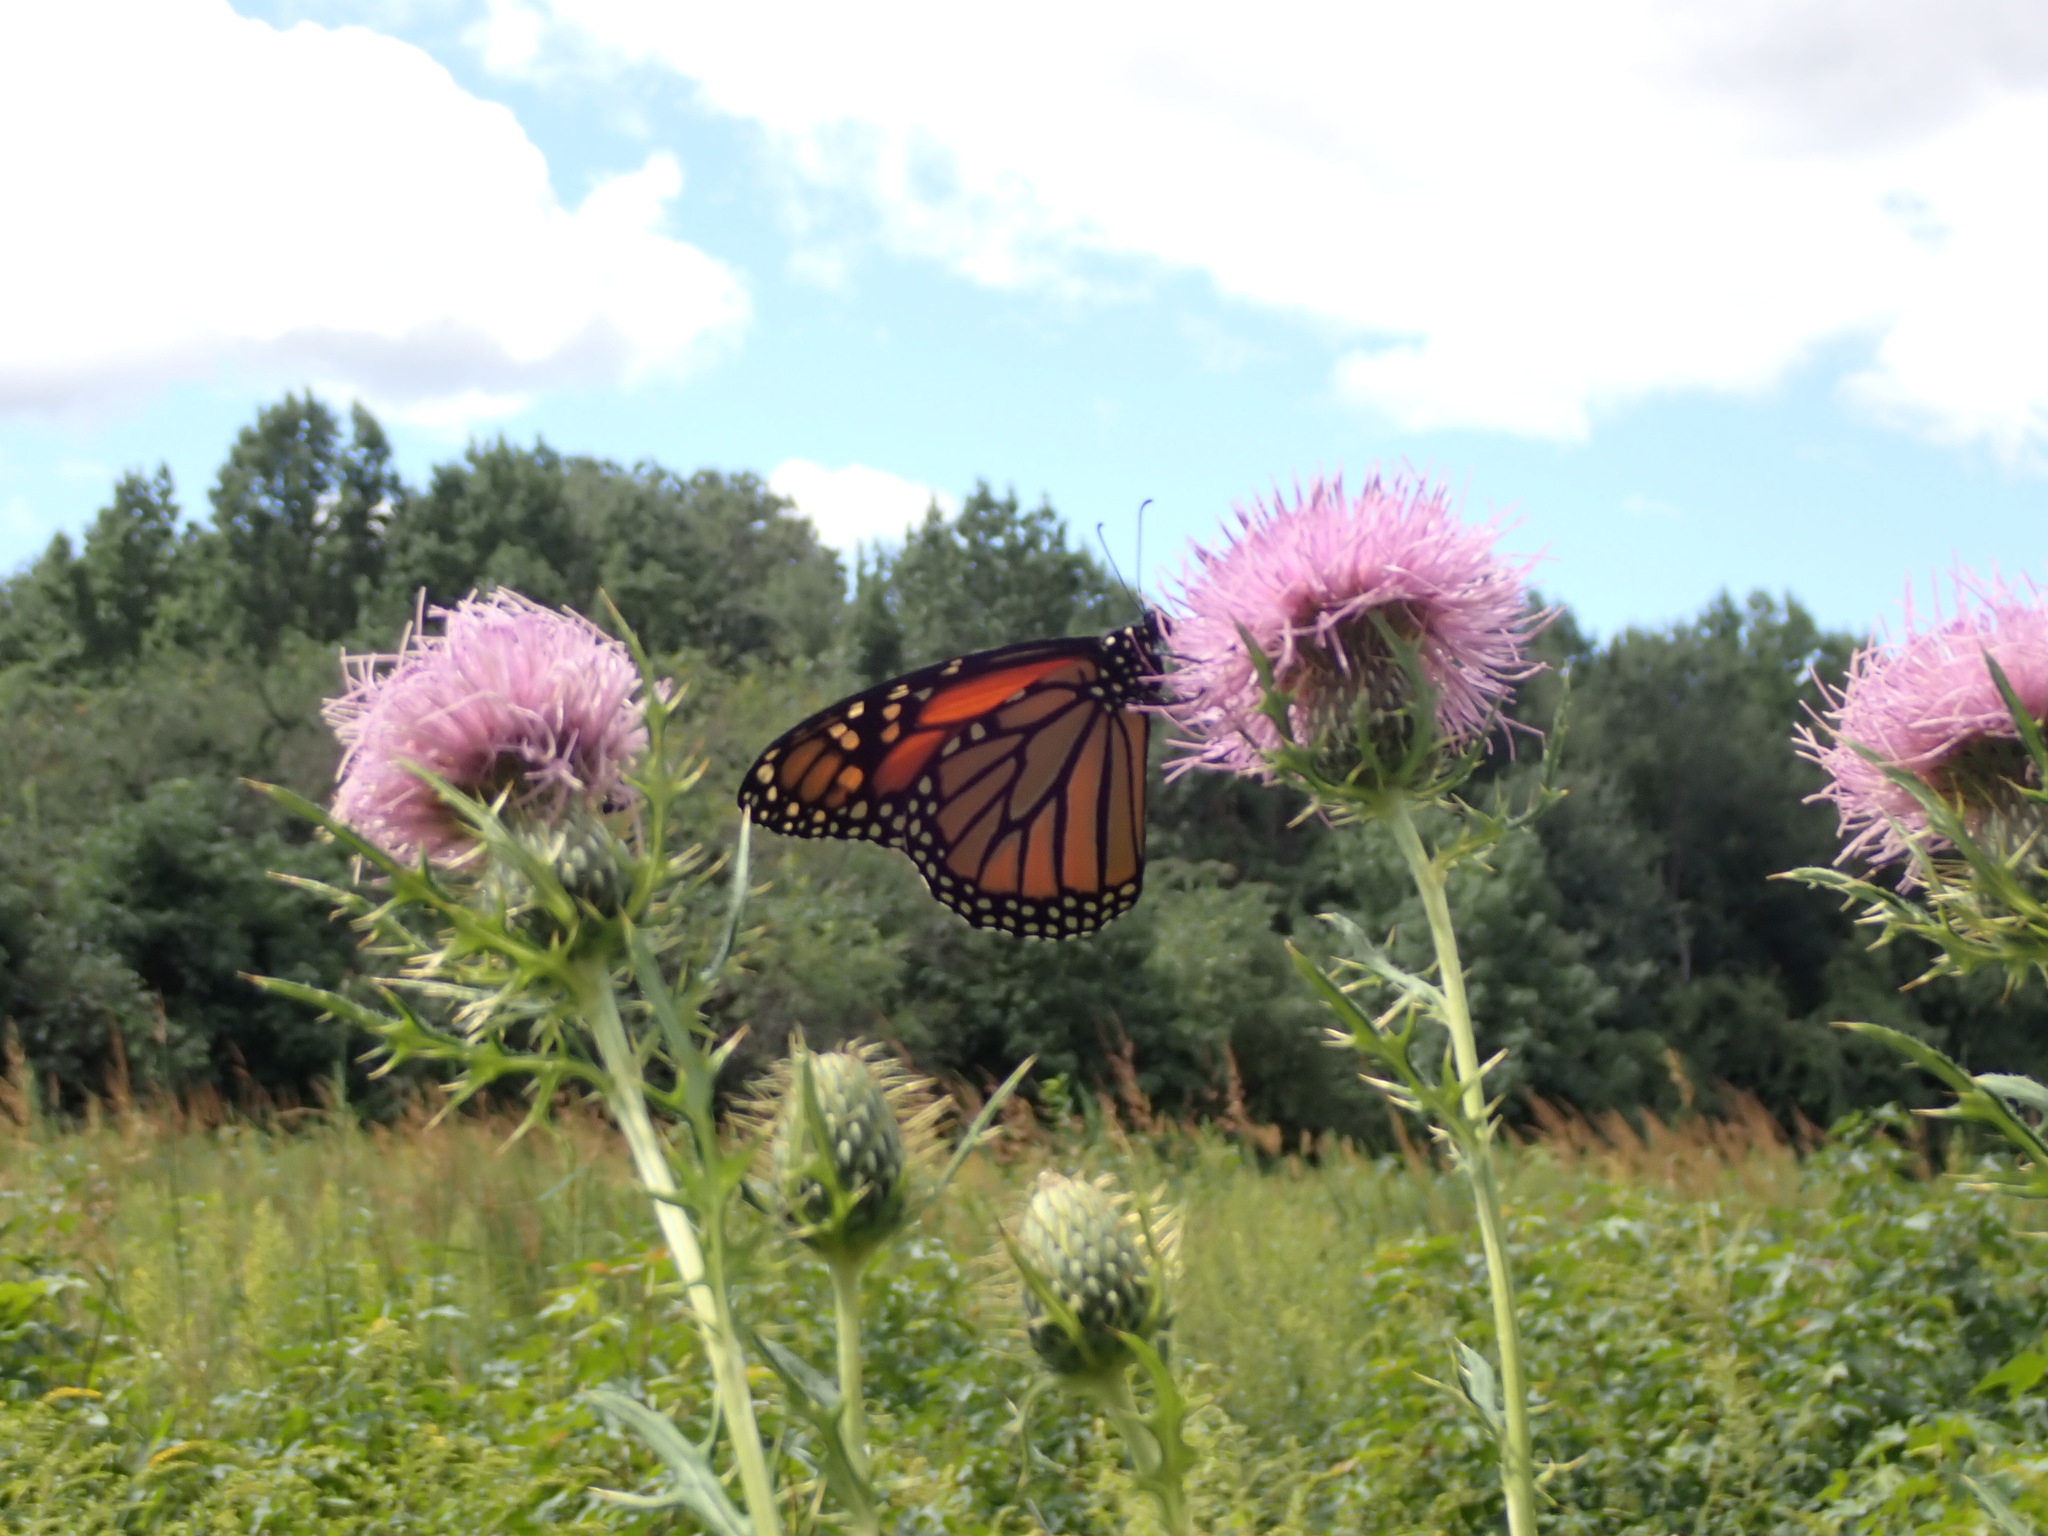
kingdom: Animalia
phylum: Arthropoda
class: Insecta
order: Lepidoptera
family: Nymphalidae
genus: Danaus
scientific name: Danaus plexippus
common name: Monarch
